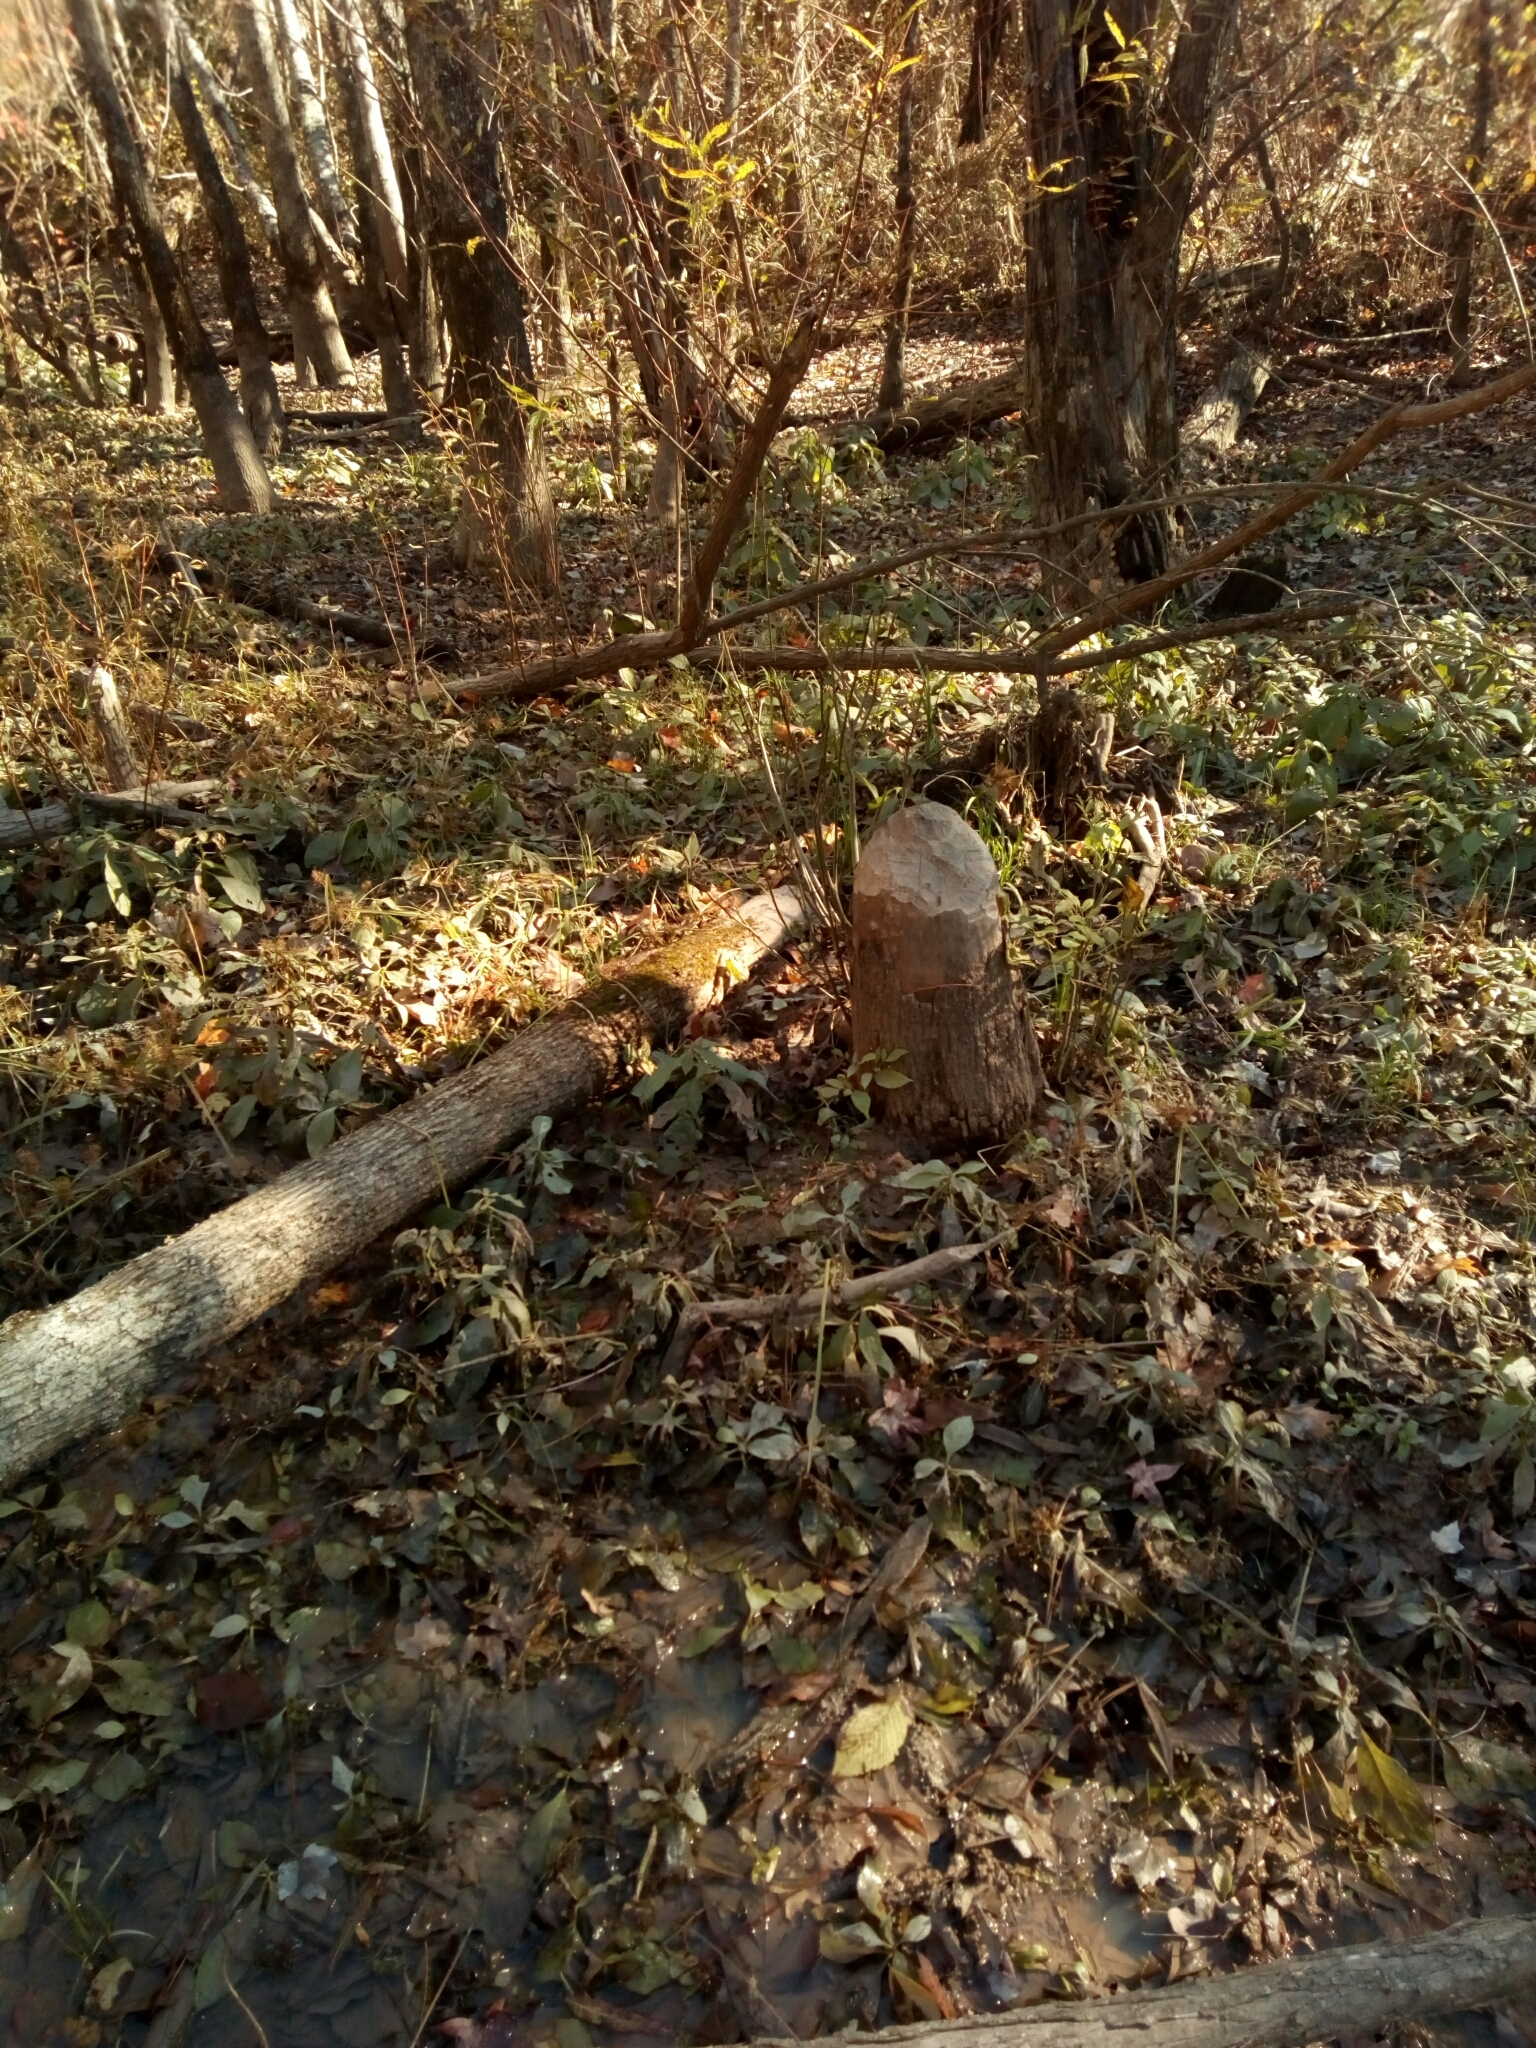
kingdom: Animalia
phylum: Chordata
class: Mammalia
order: Rodentia
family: Castoridae
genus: Castor
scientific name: Castor canadensis
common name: American beaver
